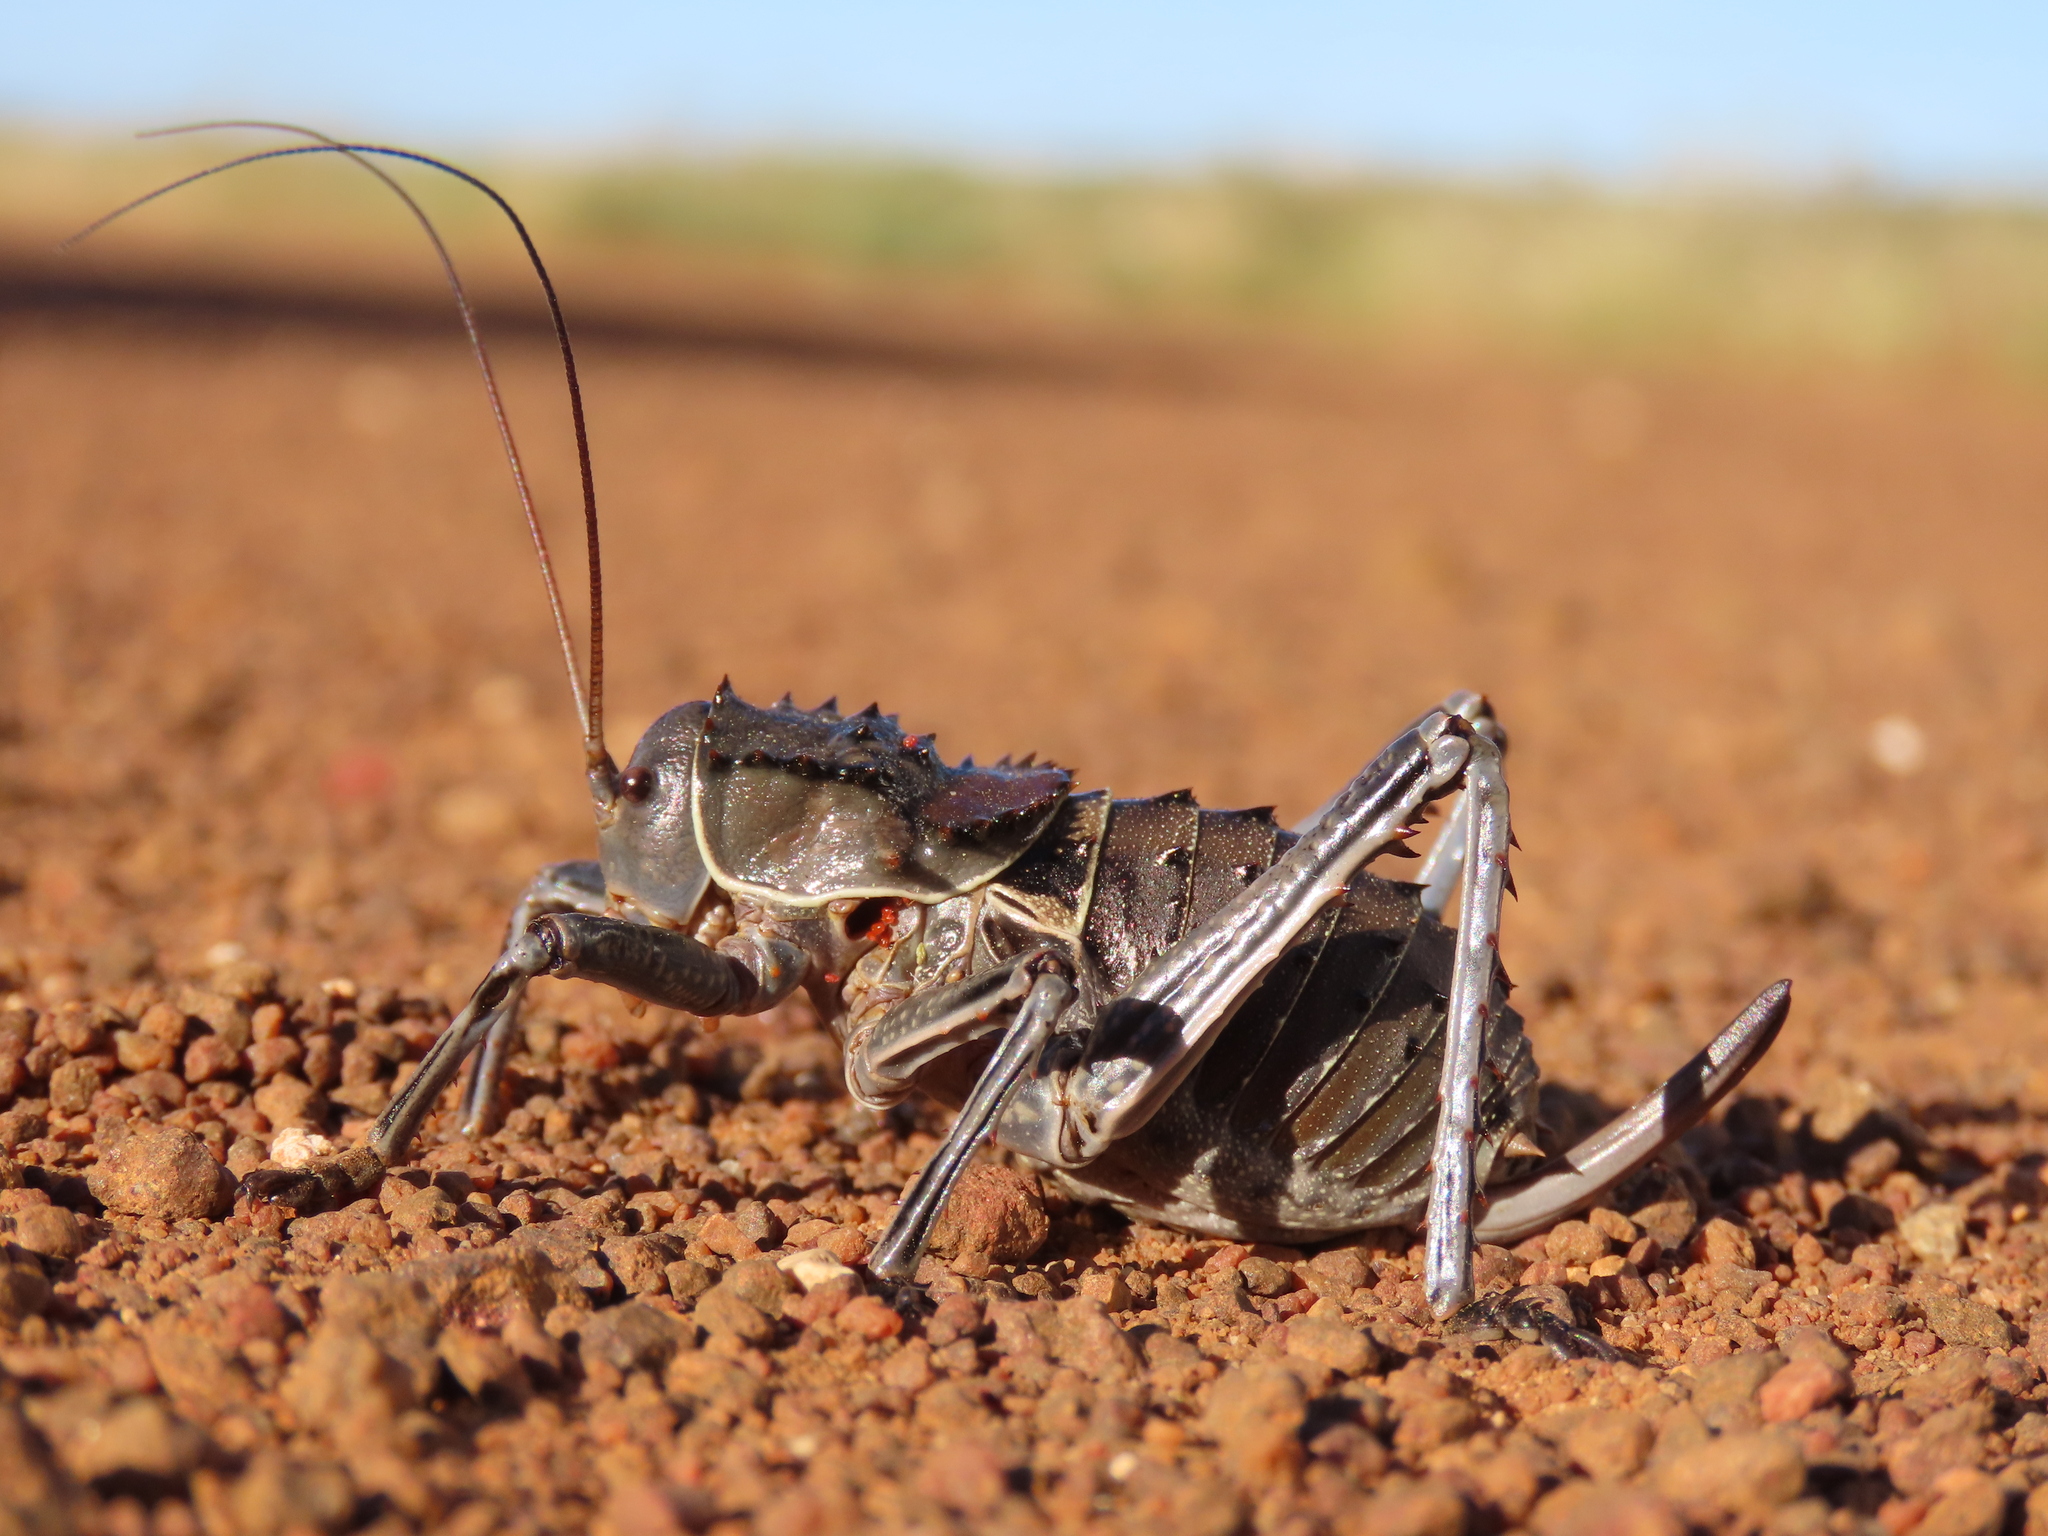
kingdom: Animalia
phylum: Arthropoda
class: Insecta
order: Orthoptera
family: Tettigoniidae
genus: Hetrodes
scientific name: Hetrodes pupus
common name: Koringkriek
